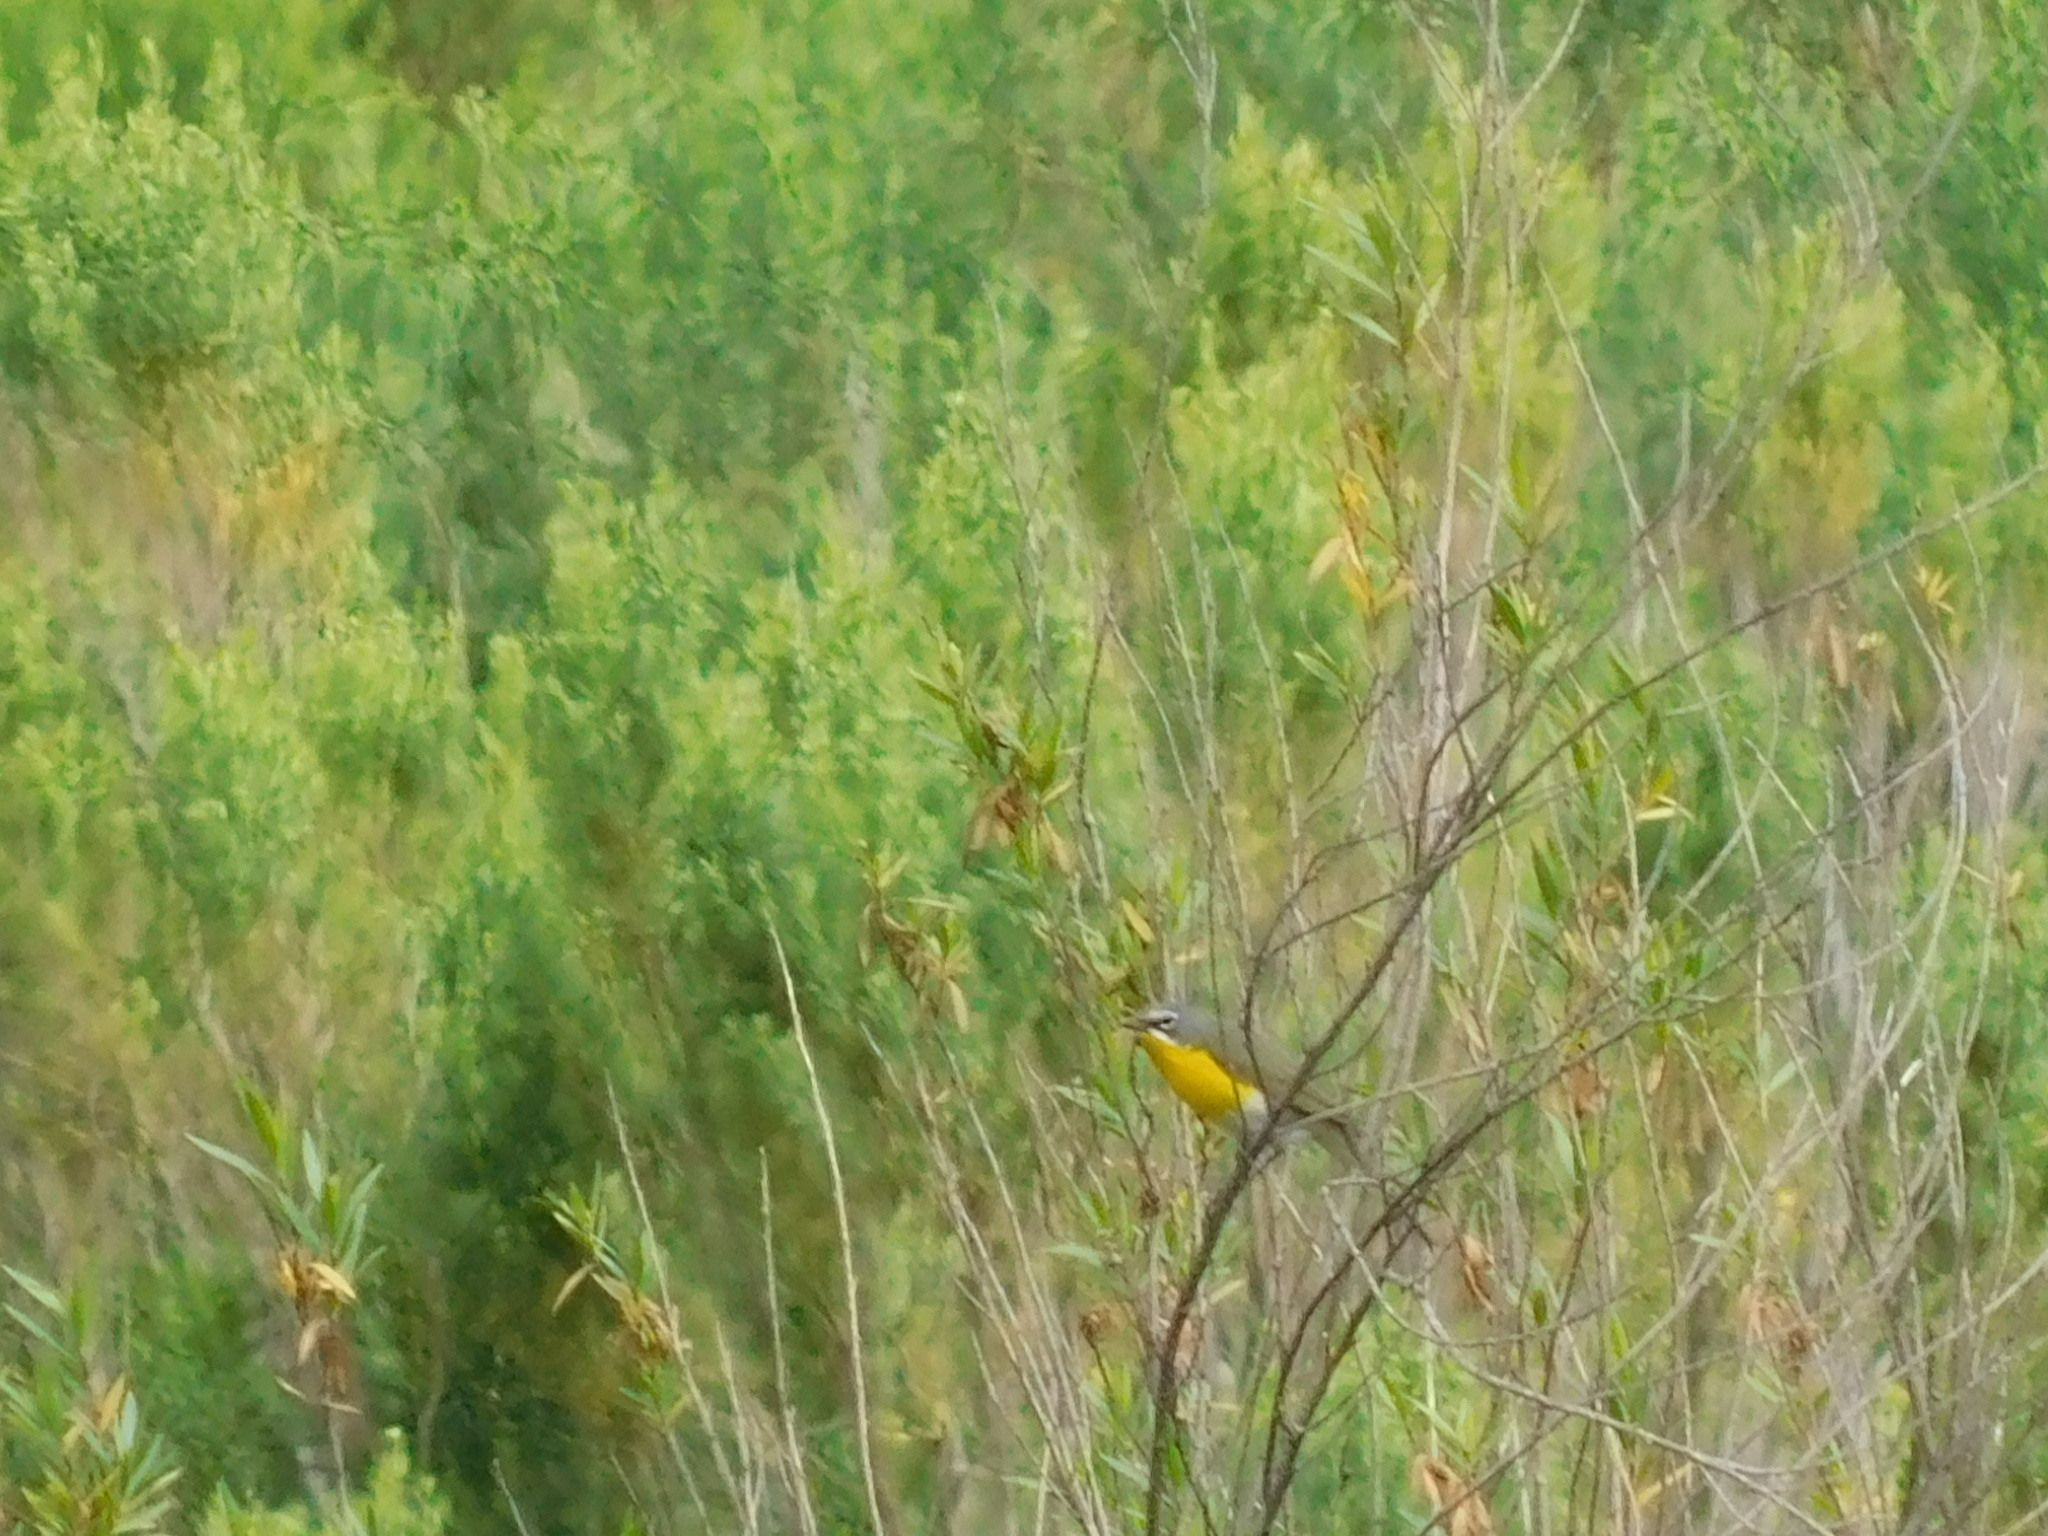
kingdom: Animalia
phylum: Chordata
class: Aves
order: Passeriformes
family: Parulidae
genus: Icteria
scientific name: Icteria virens
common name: Yellow-breasted chat
